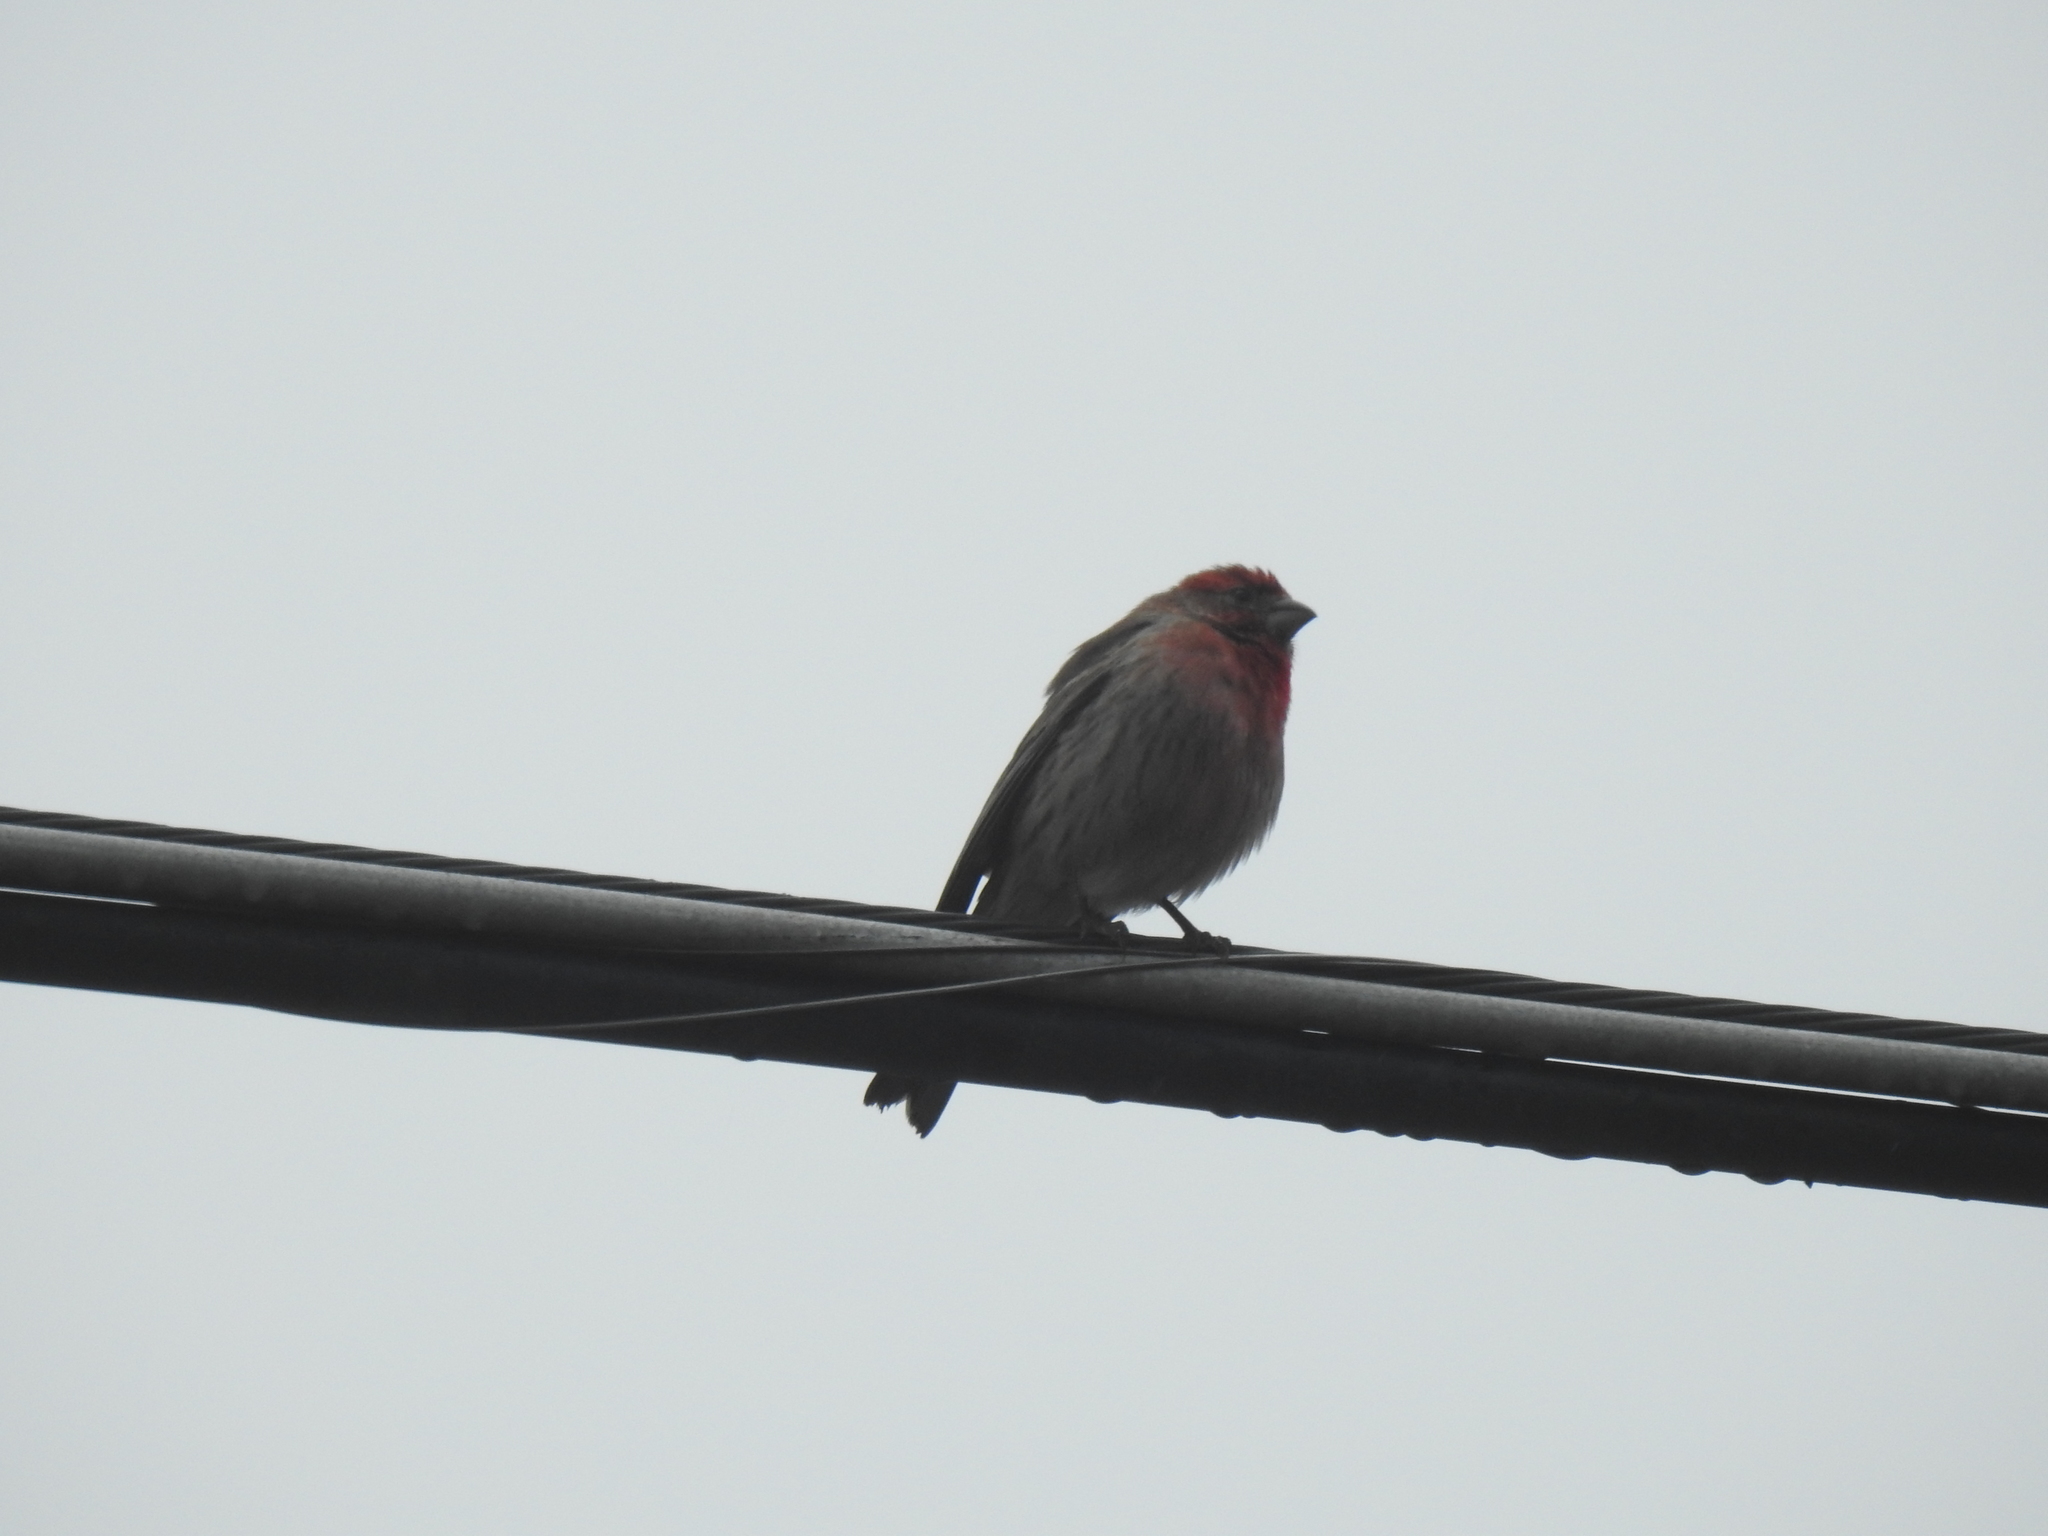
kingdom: Animalia
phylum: Chordata
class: Aves
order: Passeriformes
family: Fringillidae
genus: Haemorhous
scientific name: Haemorhous mexicanus
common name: House finch
